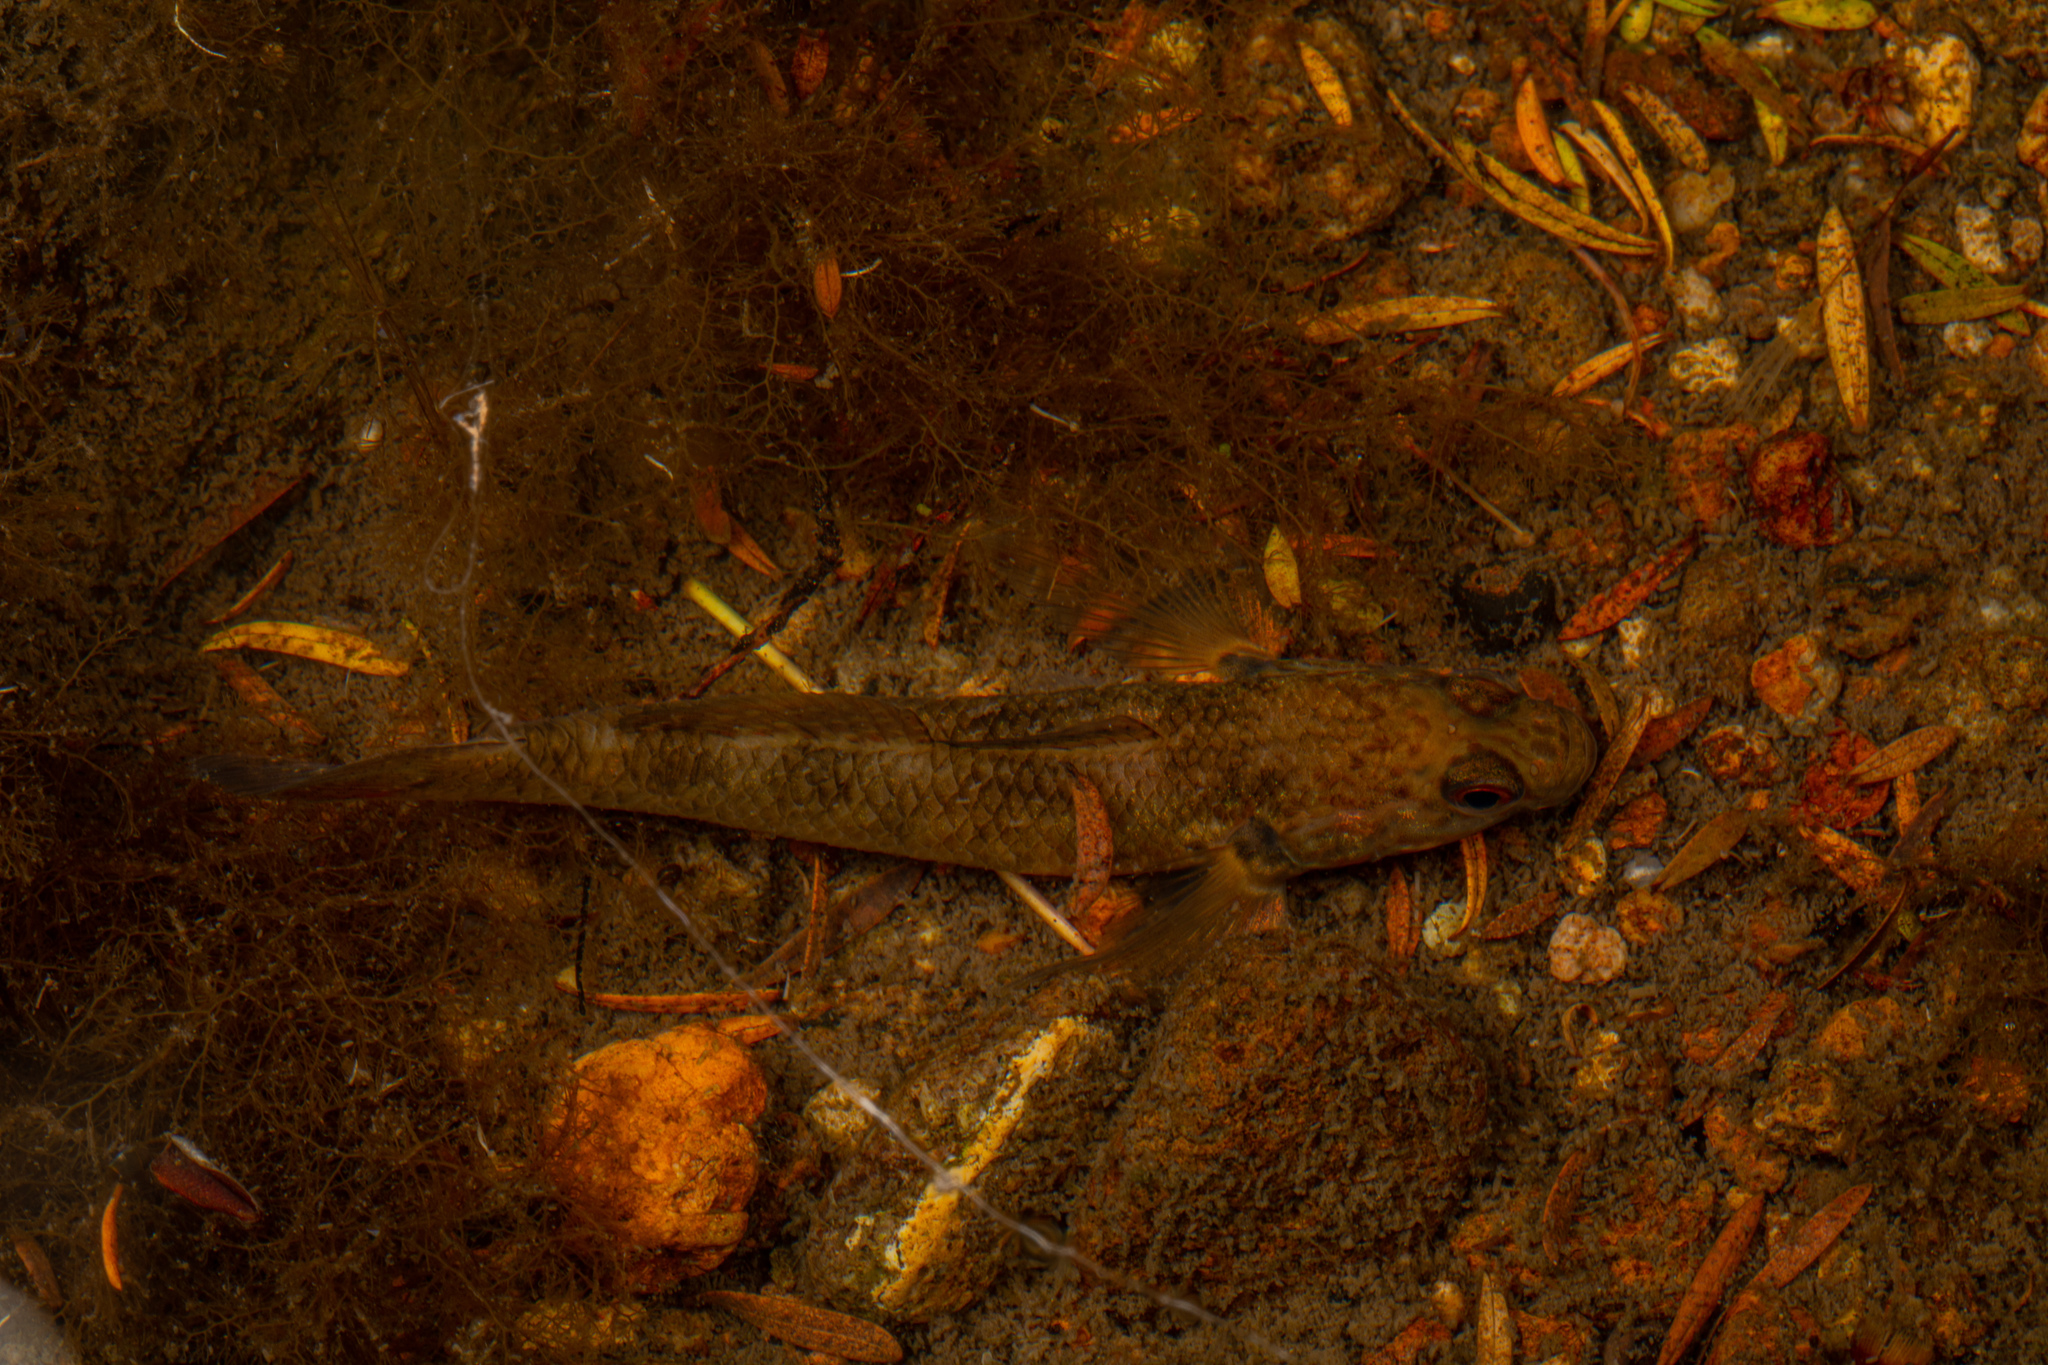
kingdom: Animalia
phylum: Chordata
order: Perciformes
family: Eleotridae
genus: Gobiomorphus
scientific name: Gobiomorphus huttoni
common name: Redfin bully
